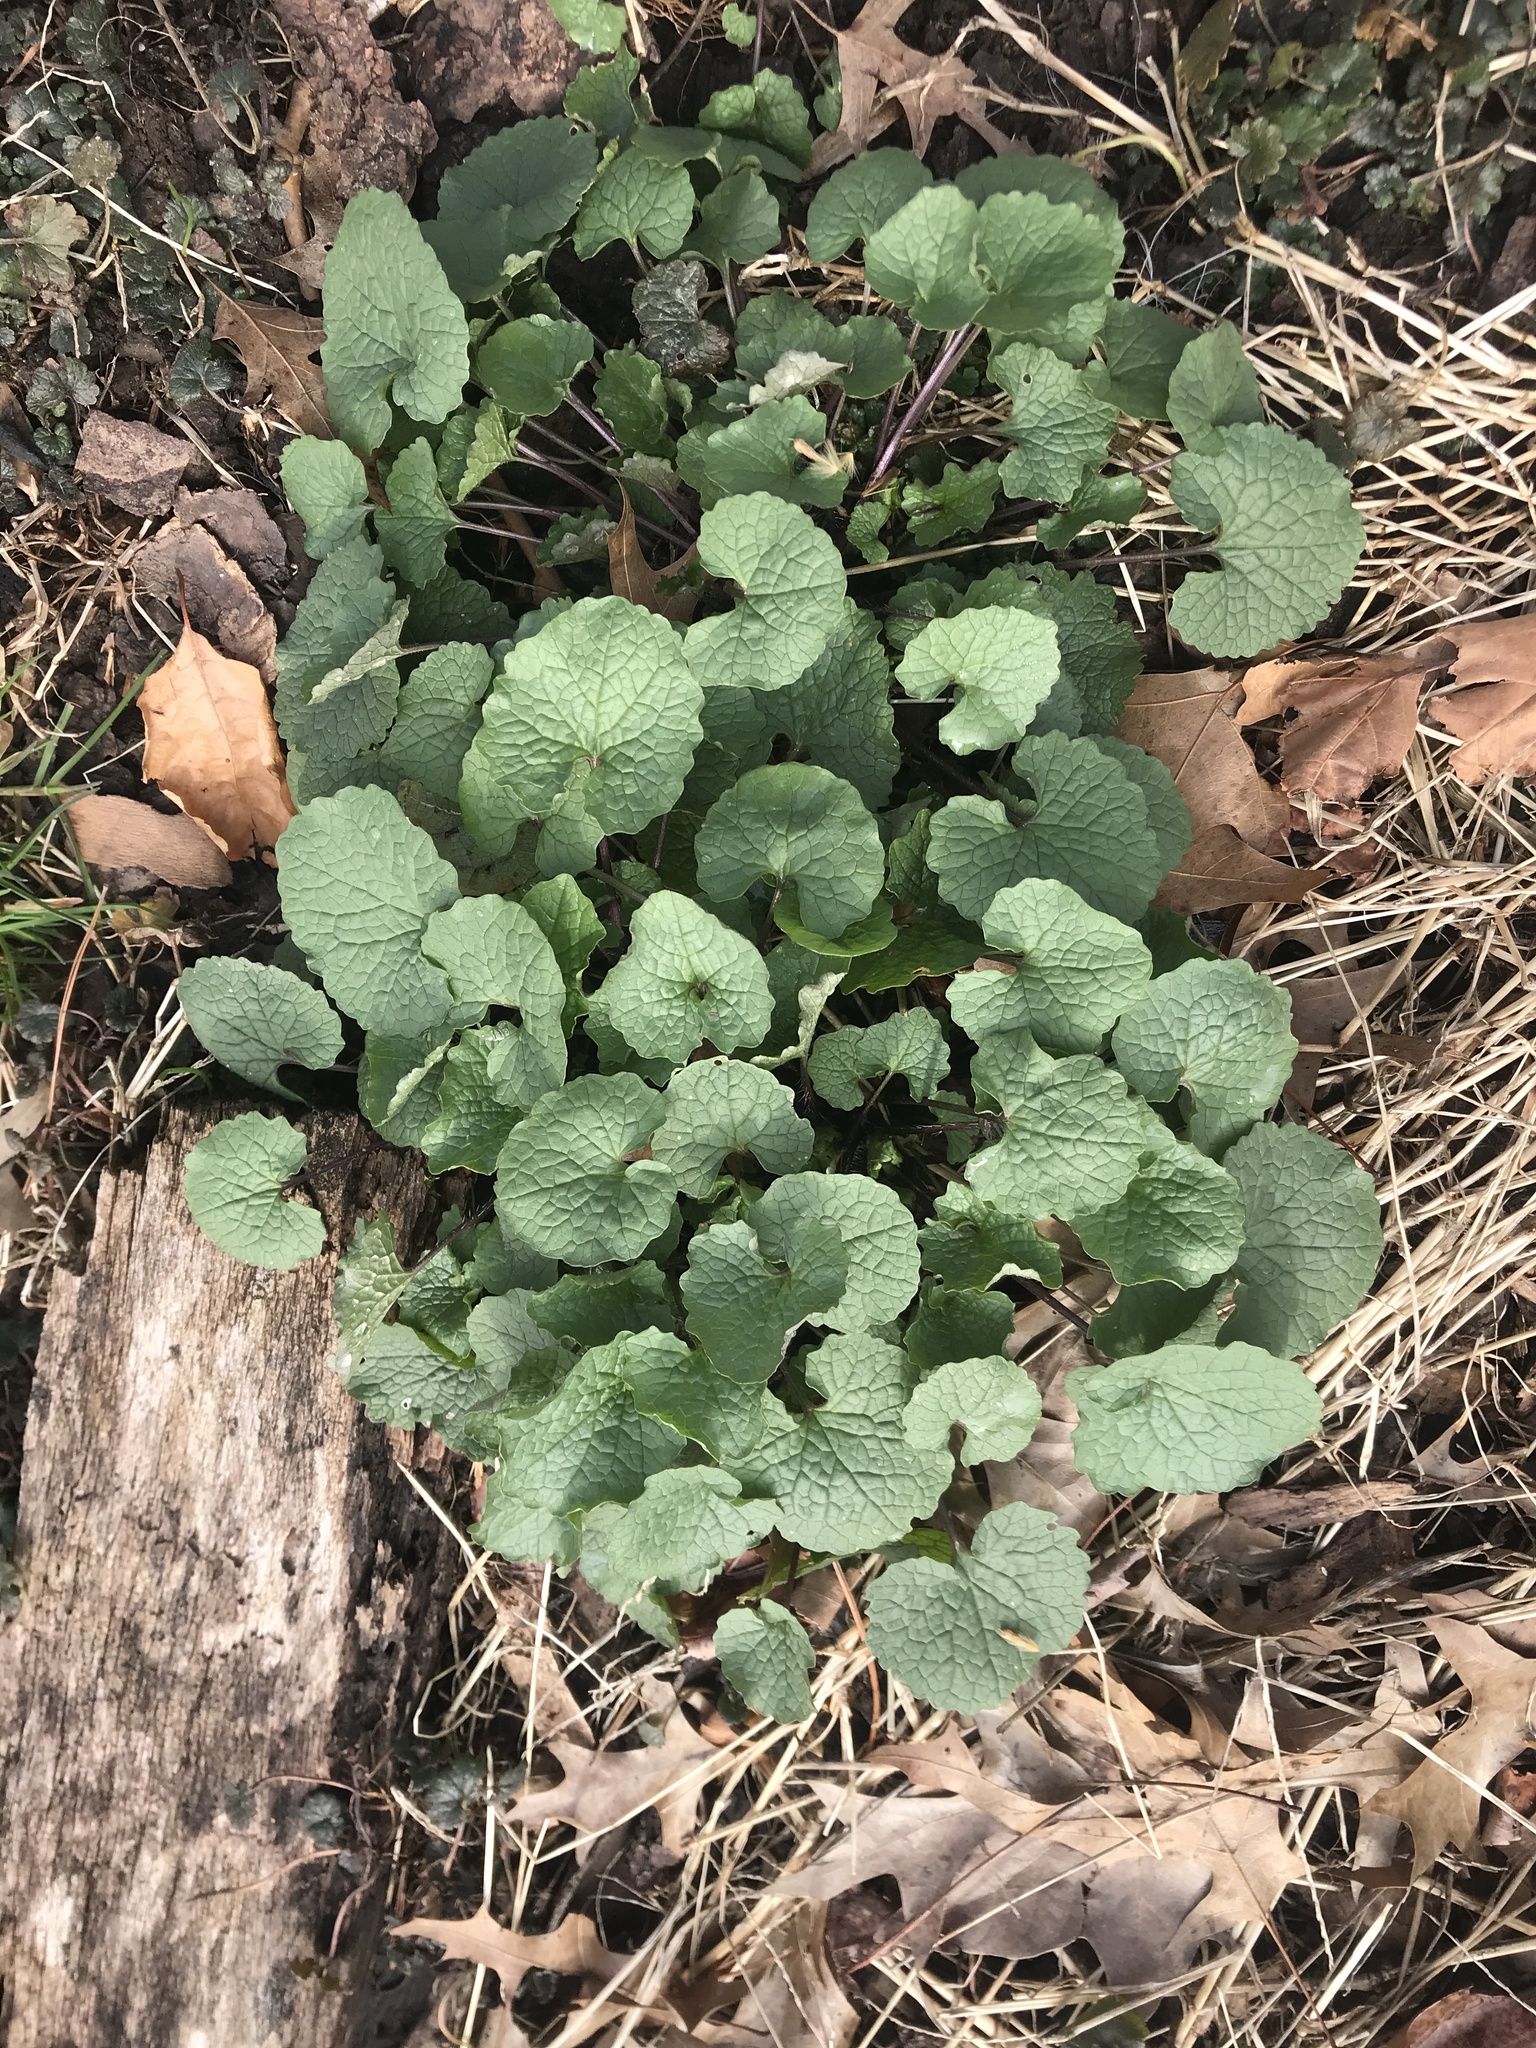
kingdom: Plantae
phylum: Tracheophyta
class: Magnoliopsida
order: Brassicales
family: Brassicaceae
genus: Alliaria
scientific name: Alliaria petiolata
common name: Garlic mustard
